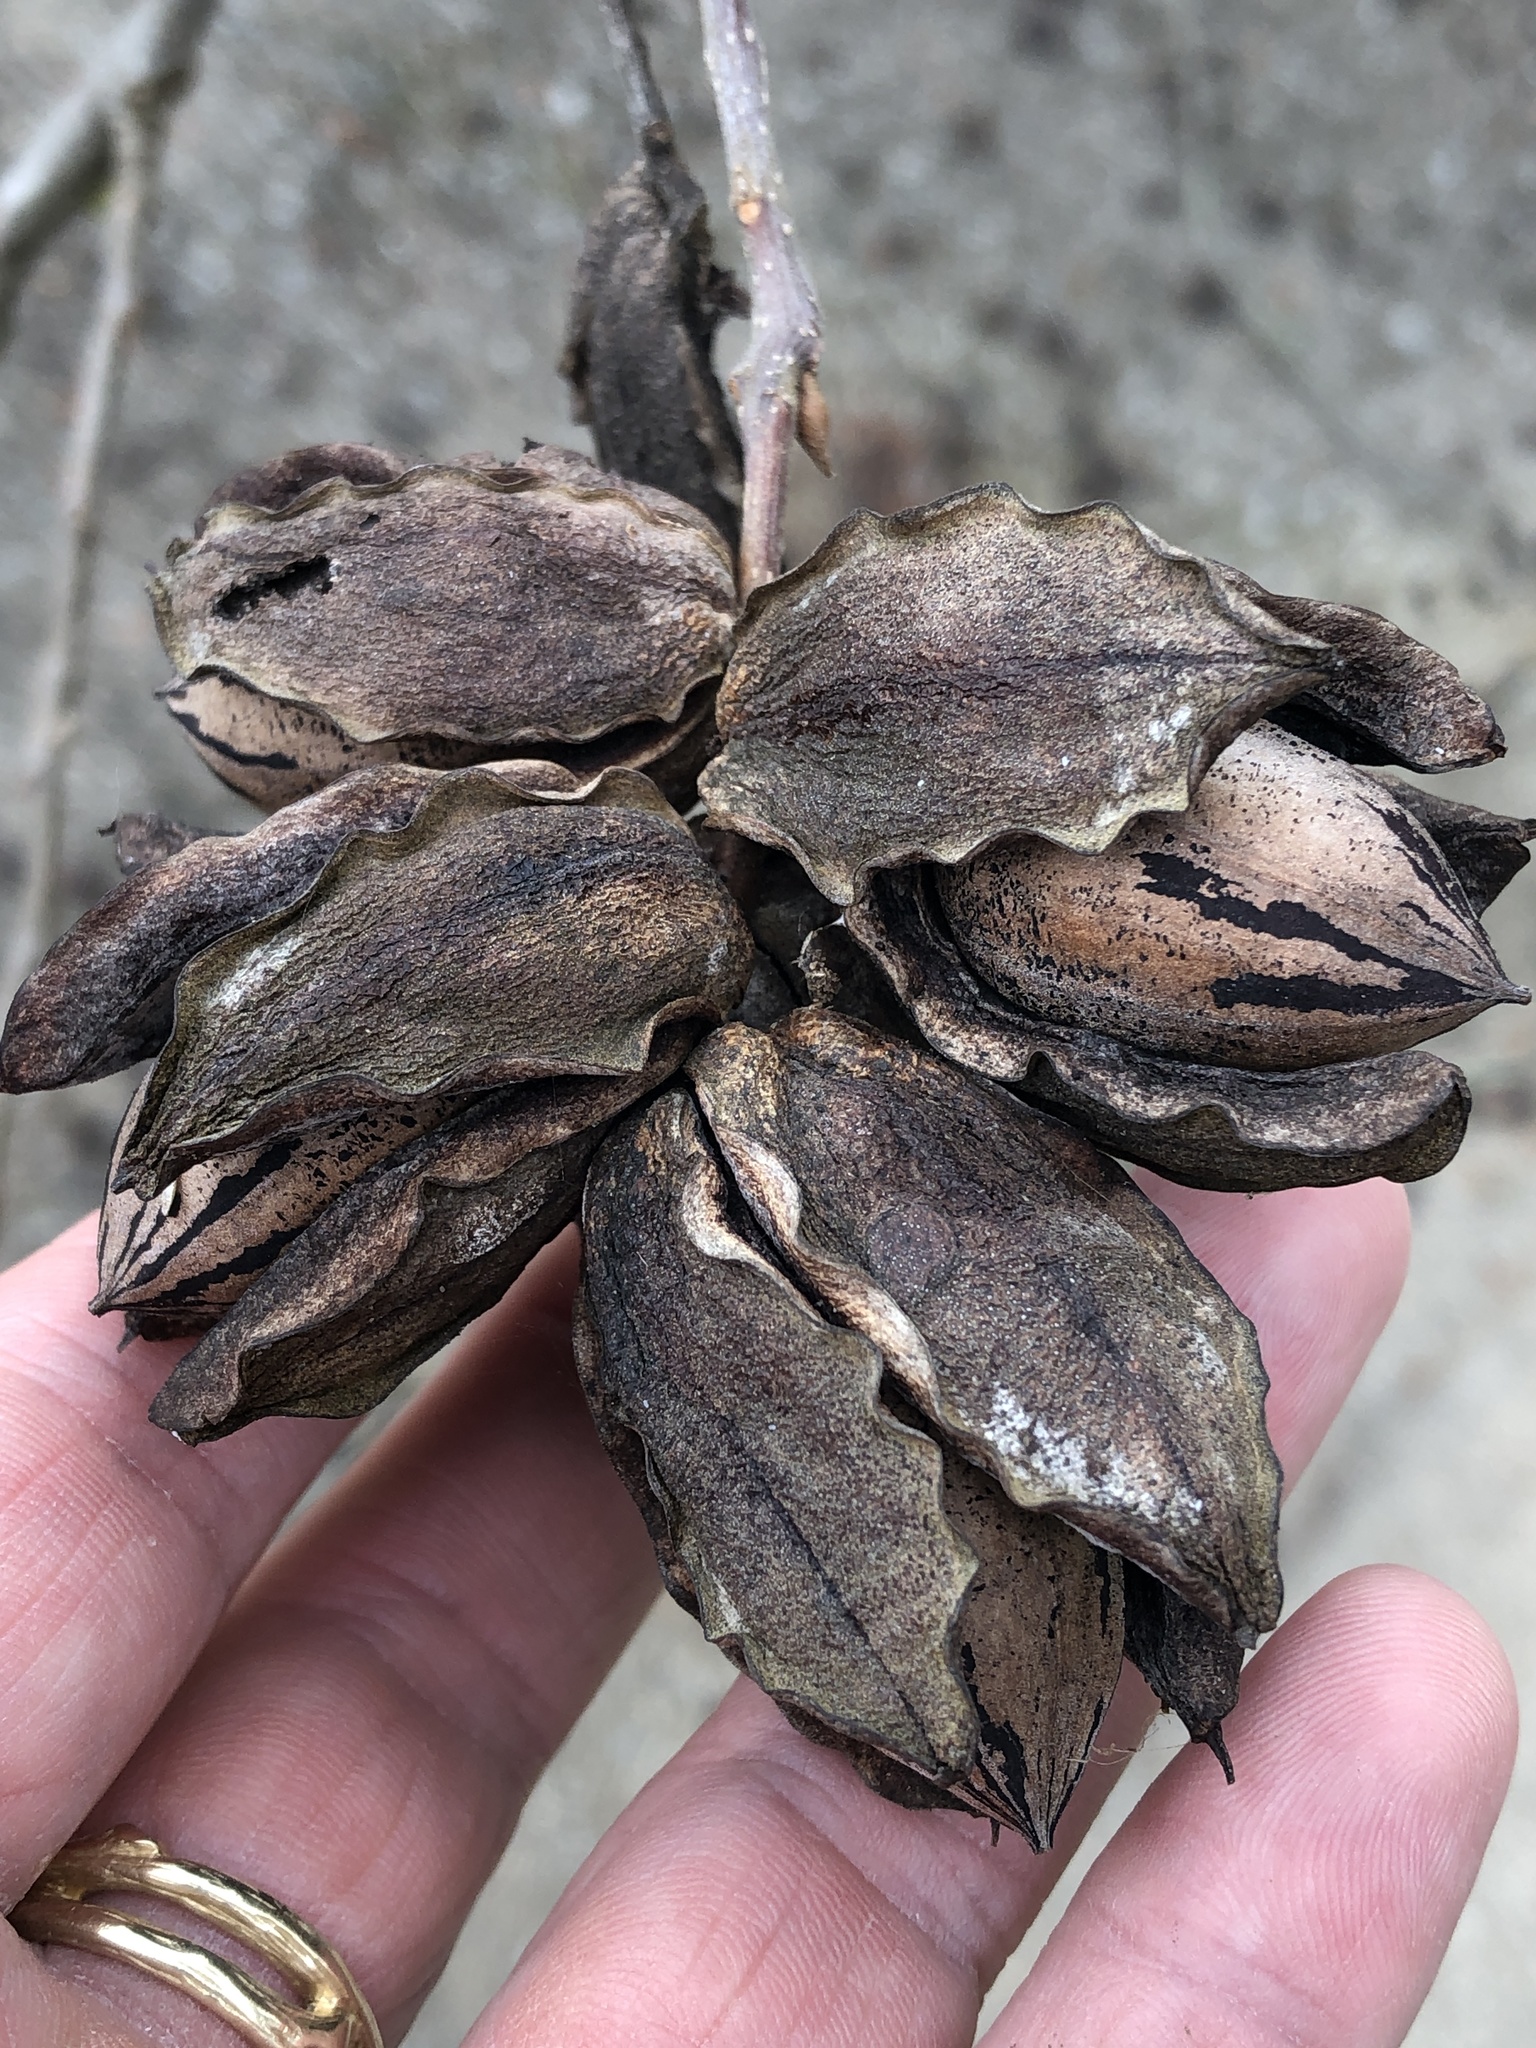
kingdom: Plantae
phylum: Tracheophyta
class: Magnoliopsida
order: Fagales
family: Juglandaceae
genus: Carya
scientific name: Carya illinoinensis
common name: Pecan
